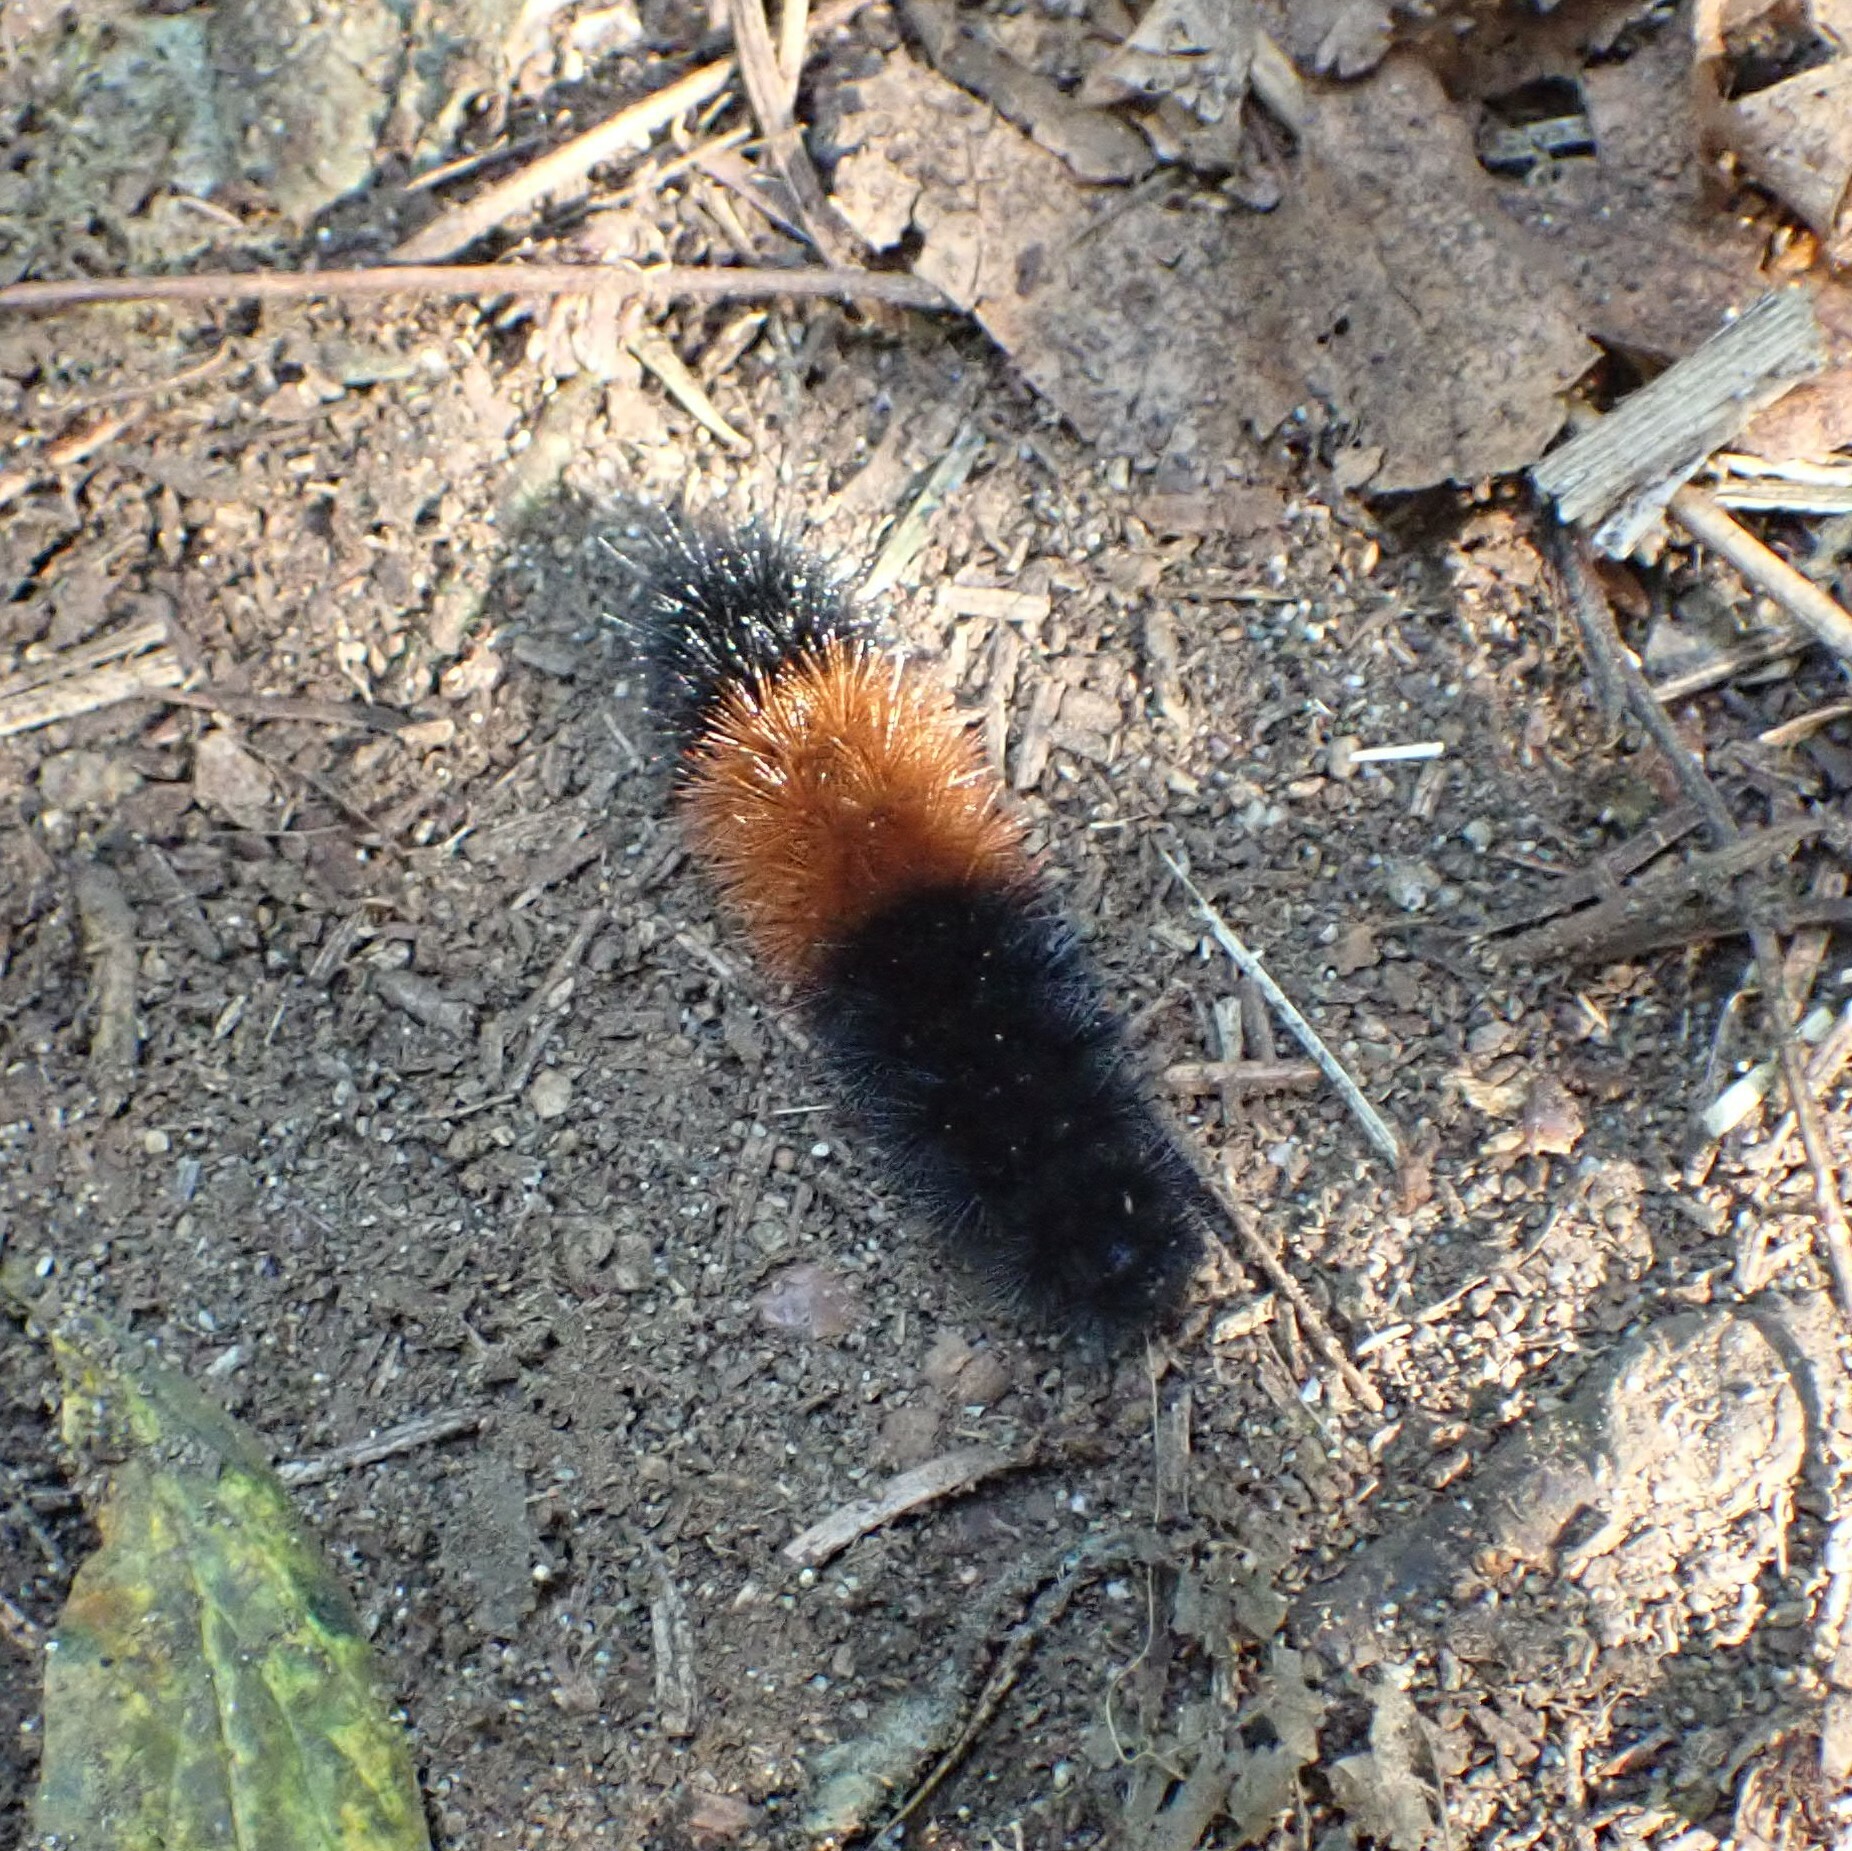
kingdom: Animalia
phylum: Arthropoda
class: Insecta
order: Lepidoptera
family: Erebidae
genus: Pyrrharctia
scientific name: Pyrrharctia isabella
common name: Isabella tiger moth
